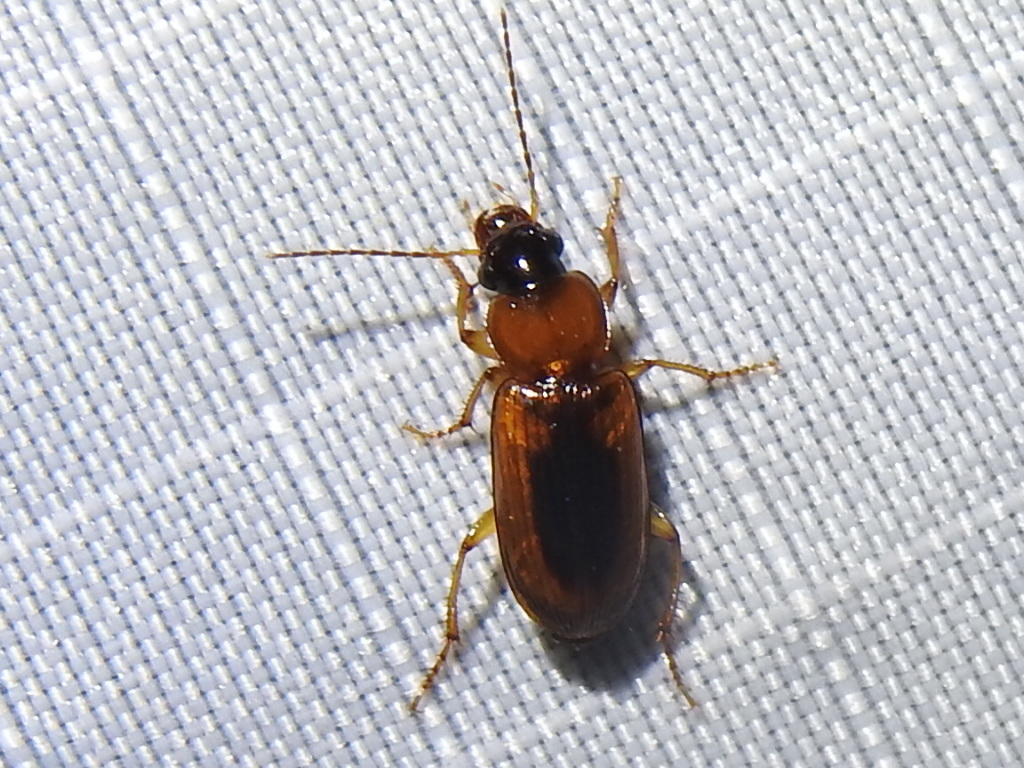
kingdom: Animalia
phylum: Arthropoda
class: Insecta
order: Coleoptera
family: Carabidae
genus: Stenolophus
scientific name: Stenolophus dissimilis
